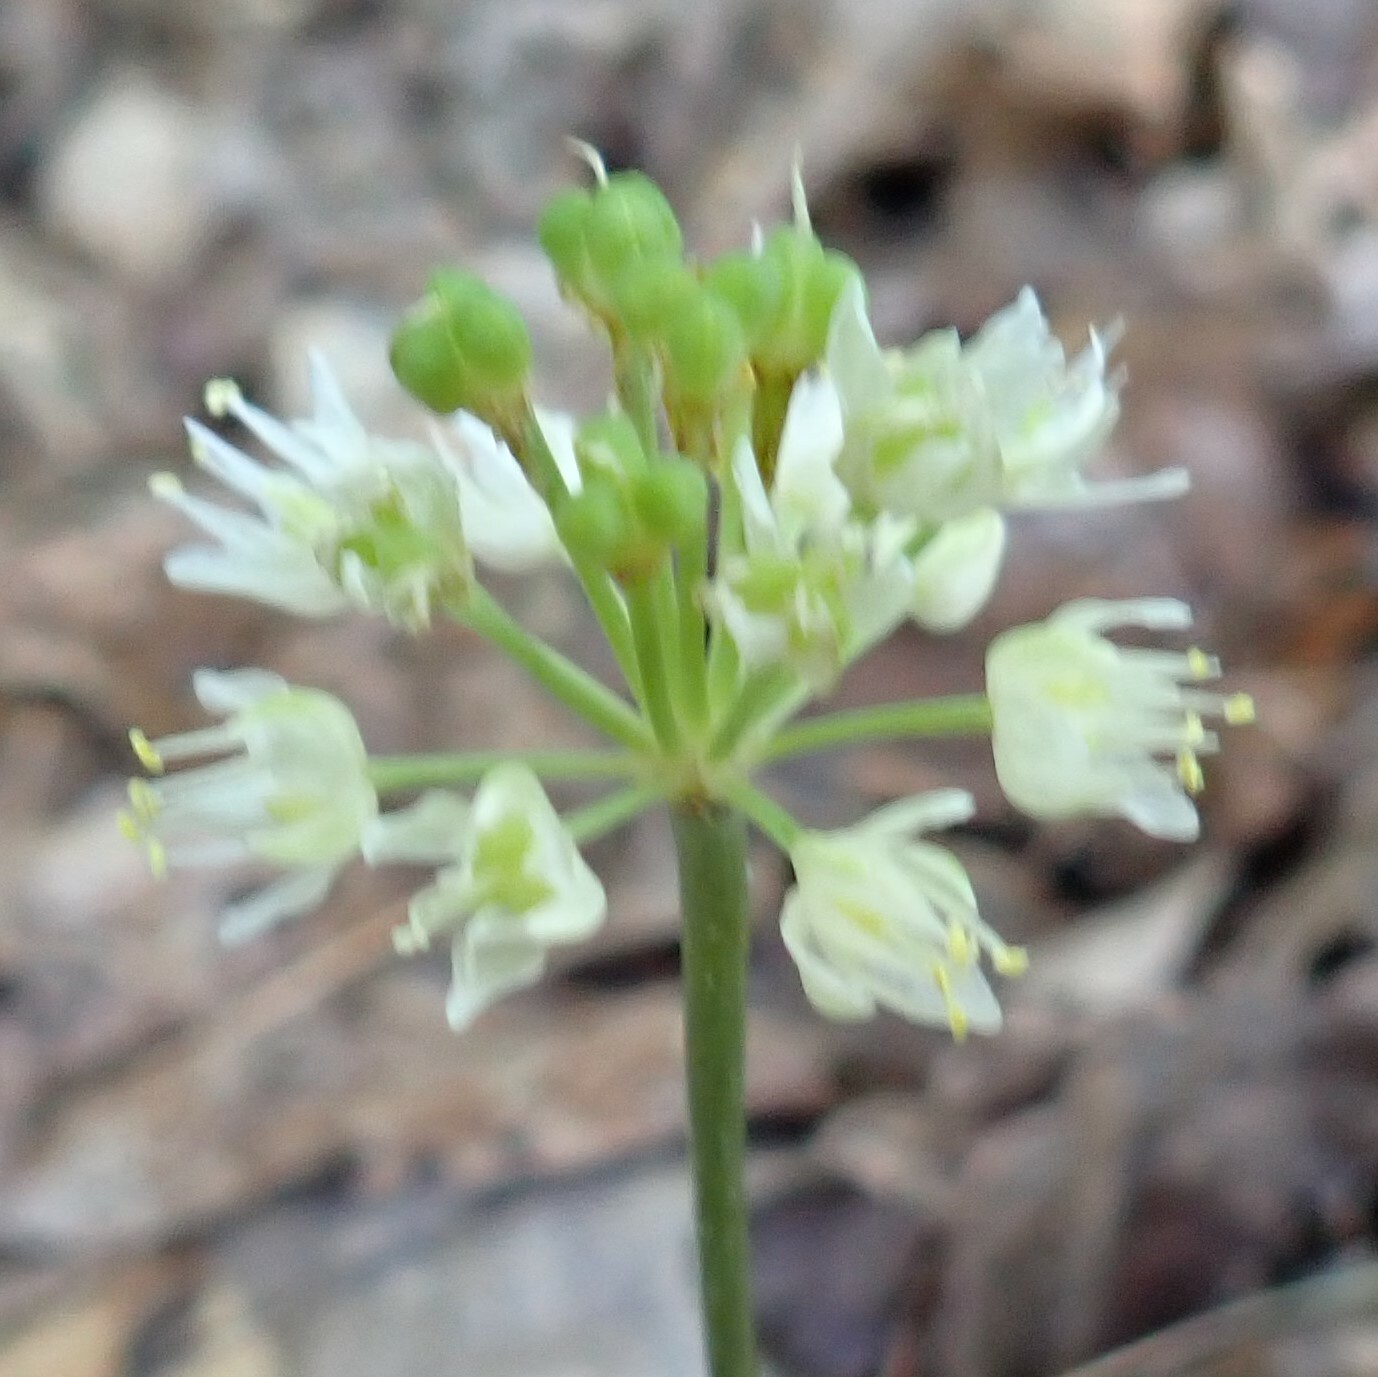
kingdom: Plantae
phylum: Tracheophyta
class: Liliopsida
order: Asparagales
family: Amaryllidaceae
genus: Allium
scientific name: Allium tricoccum
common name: Ramp
